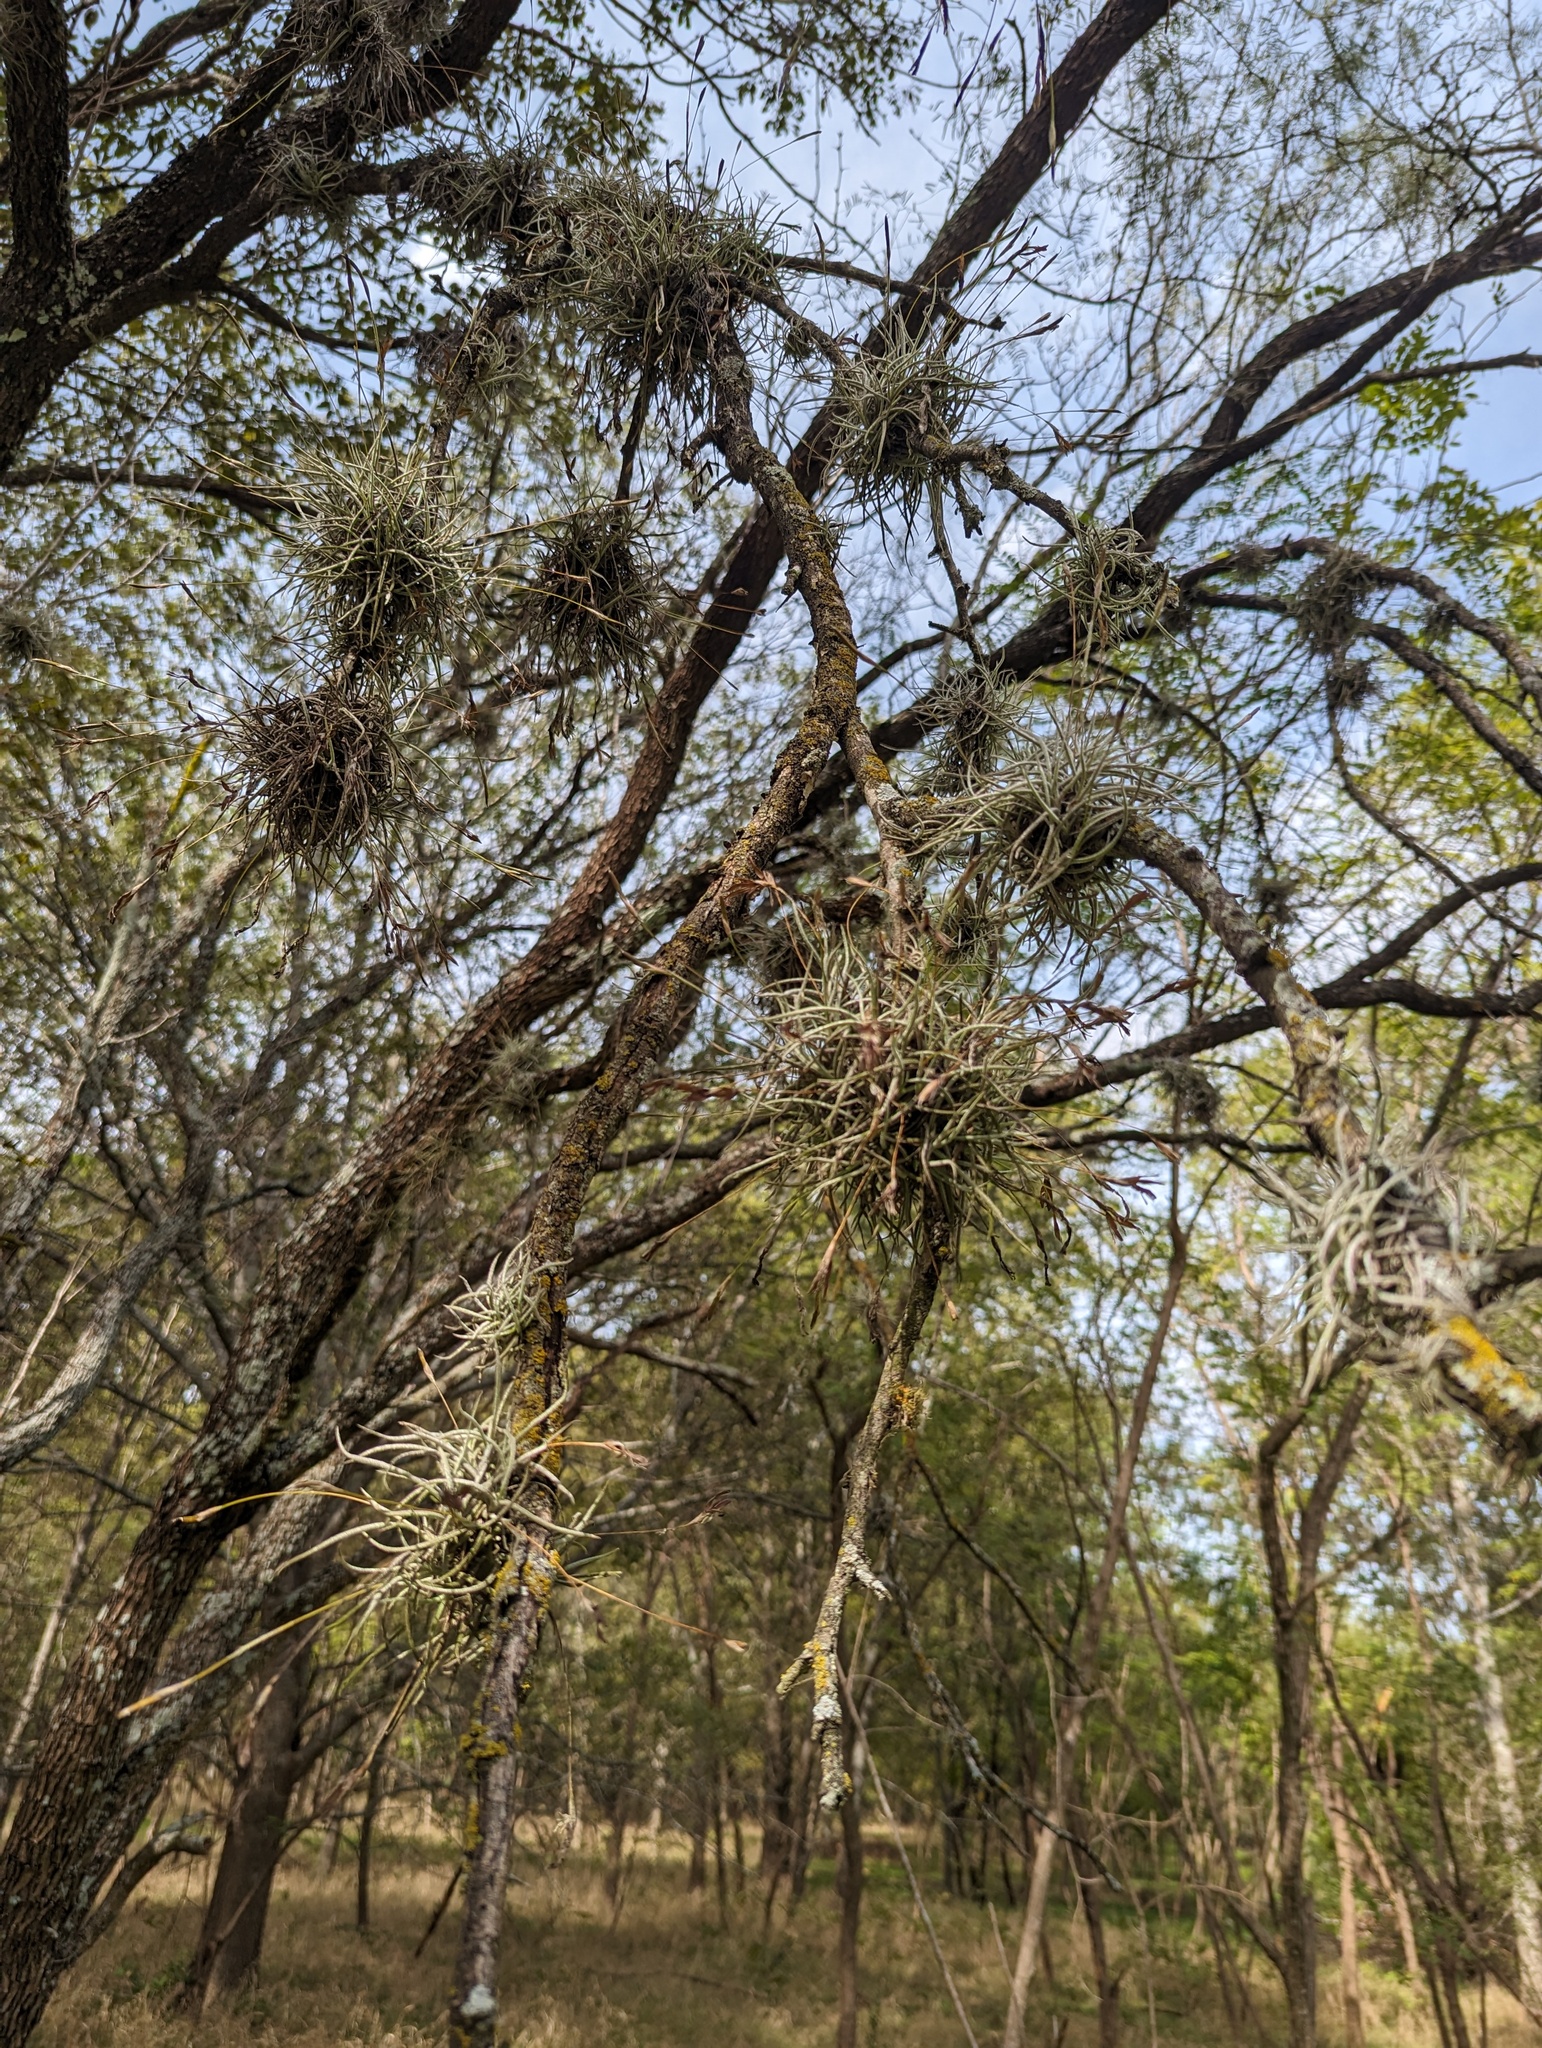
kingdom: Plantae
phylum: Tracheophyta
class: Liliopsida
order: Poales
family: Bromeliaceae
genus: Tillandsia
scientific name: Tillandsia recurvata
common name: Small ballmoss
